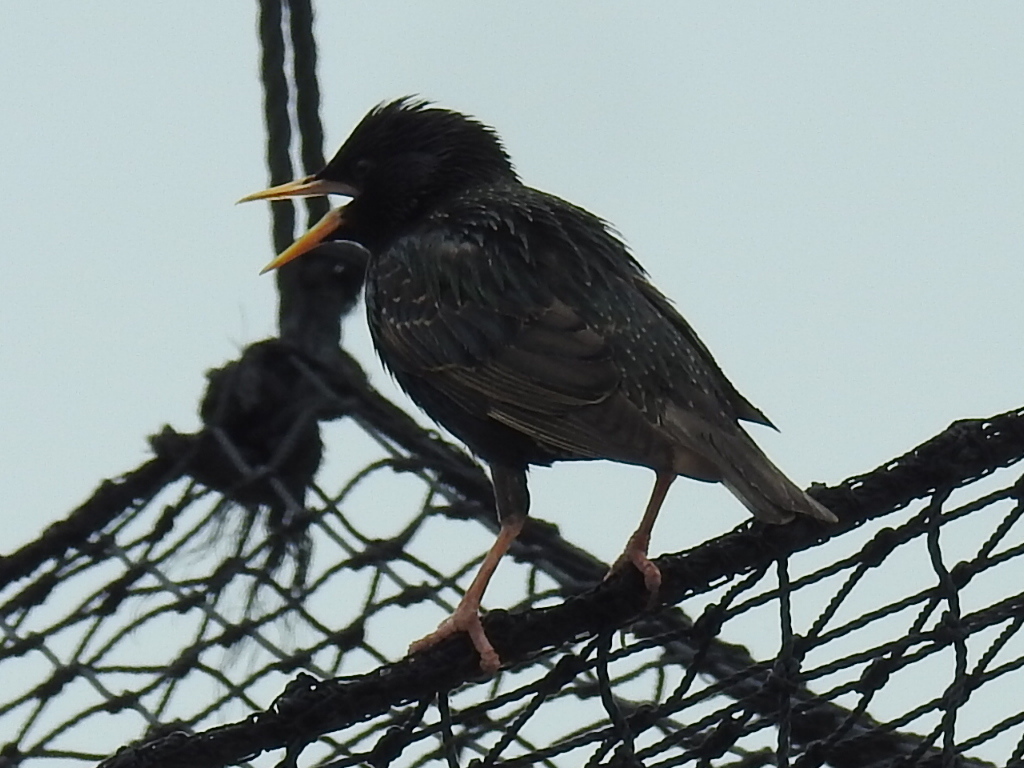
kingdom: Animalia
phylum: Chordata
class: Aves
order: Passeriformes
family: Sturnidae
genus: Sturnus
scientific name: Sturnus vulgaris
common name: Common starling
